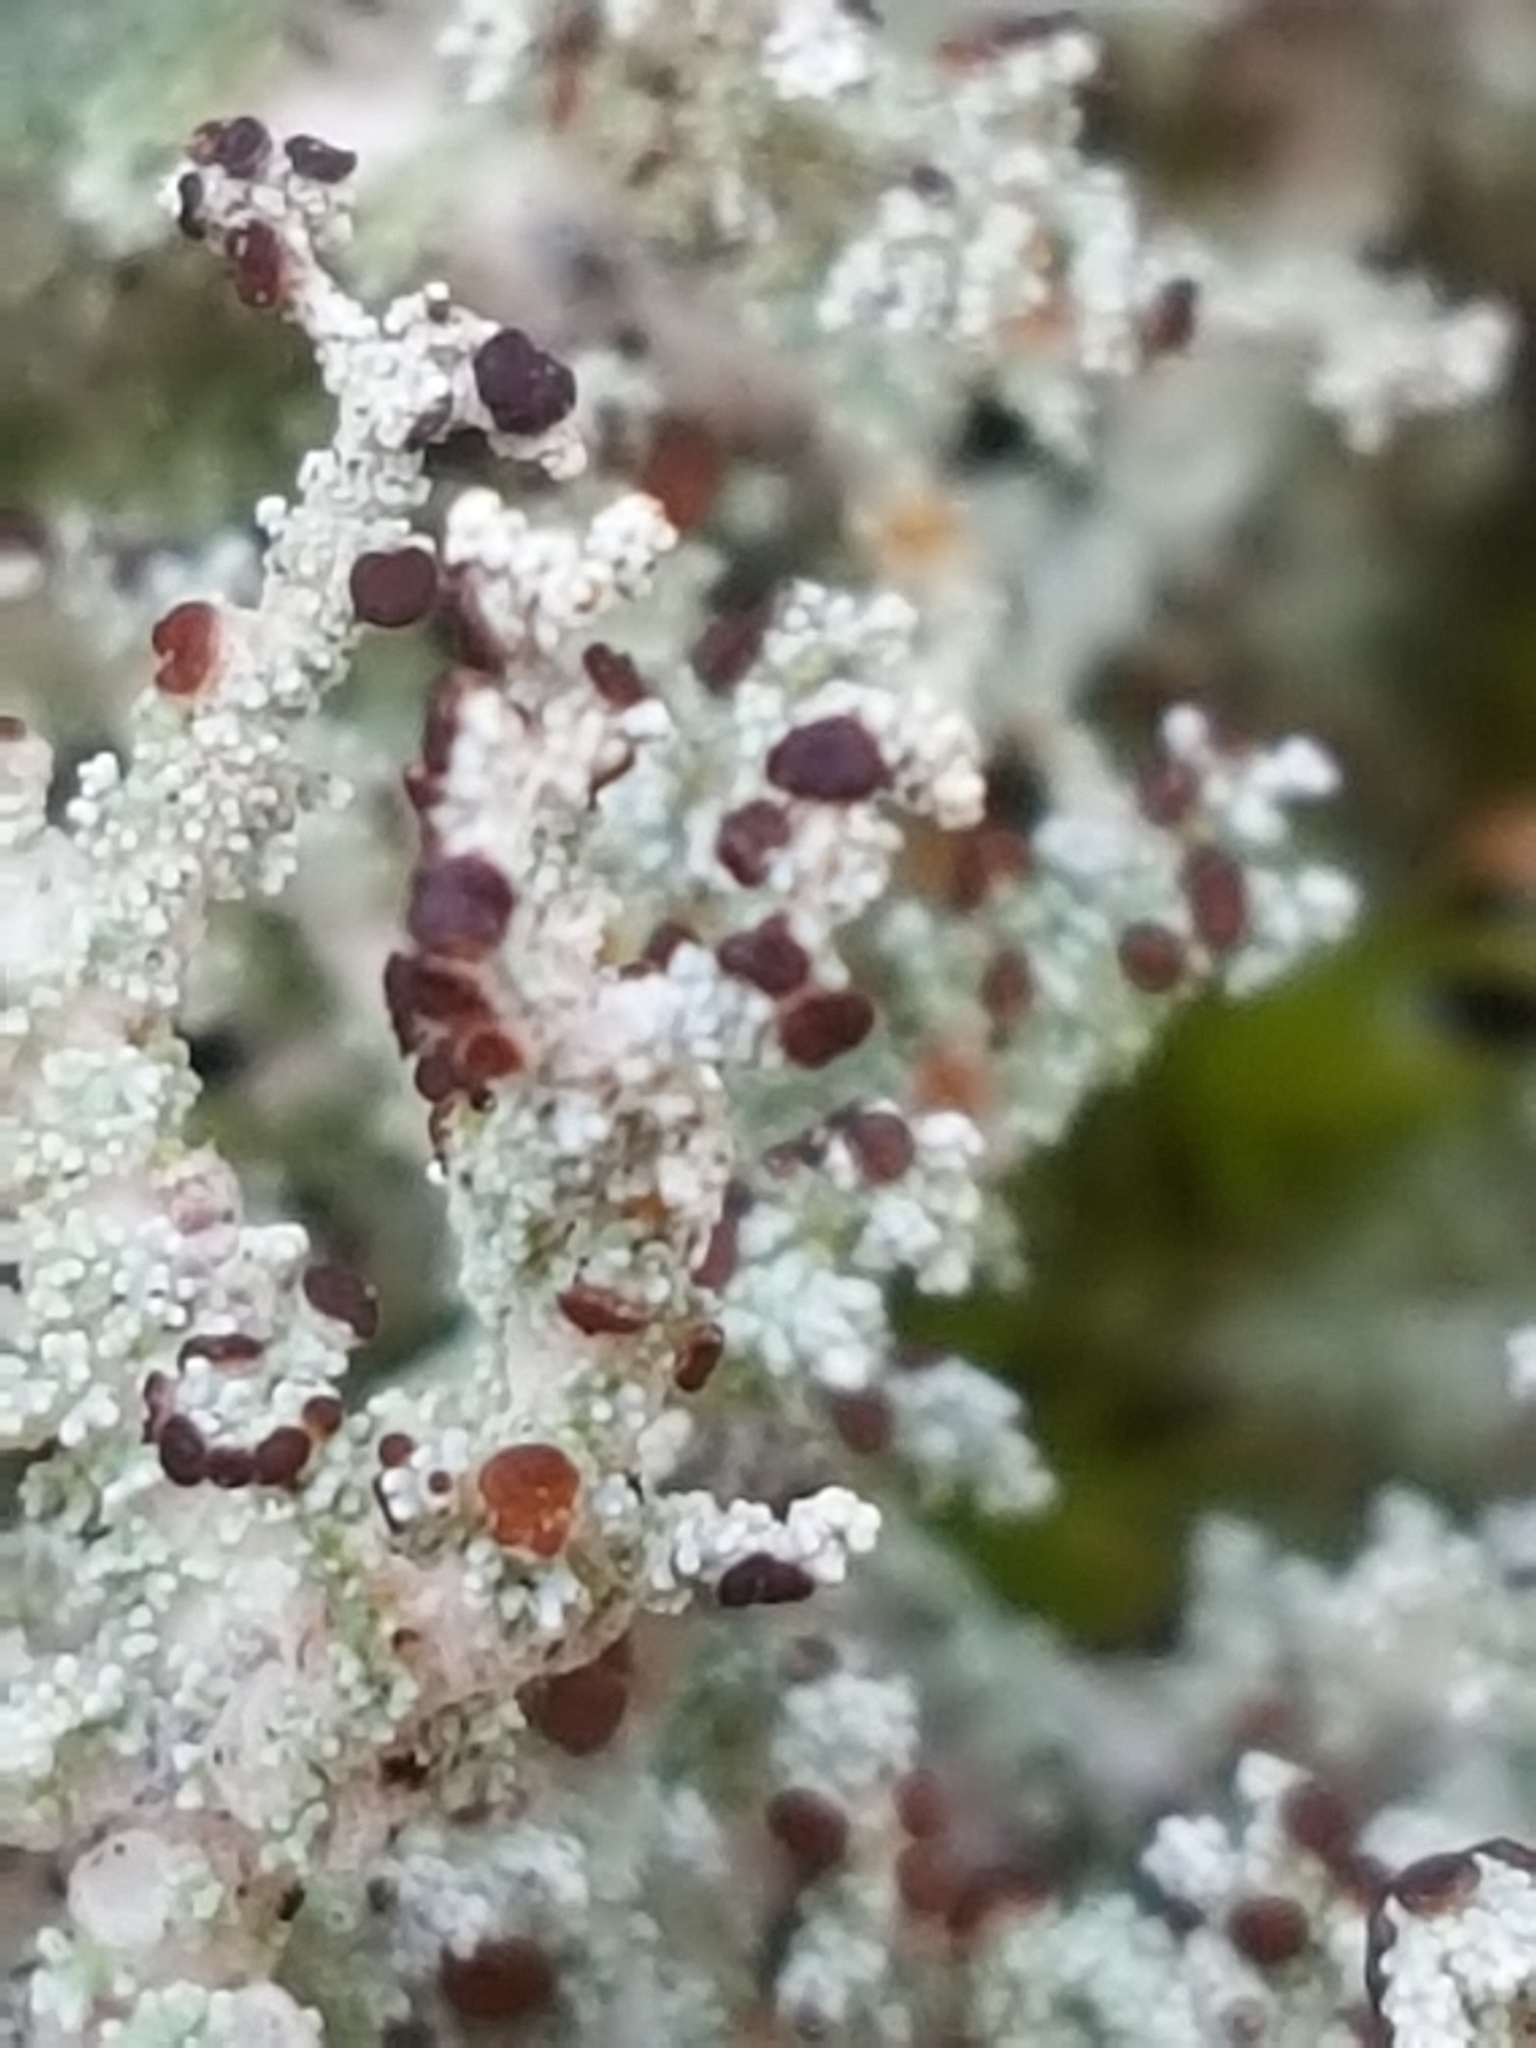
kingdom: Fungi
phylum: Ascomycota
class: Lecanoromycetes
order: Lecanorales
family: Stereocaulaceae
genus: Stereocaulon
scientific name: Stereocaulon paschale
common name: Cottontail foam lichen
